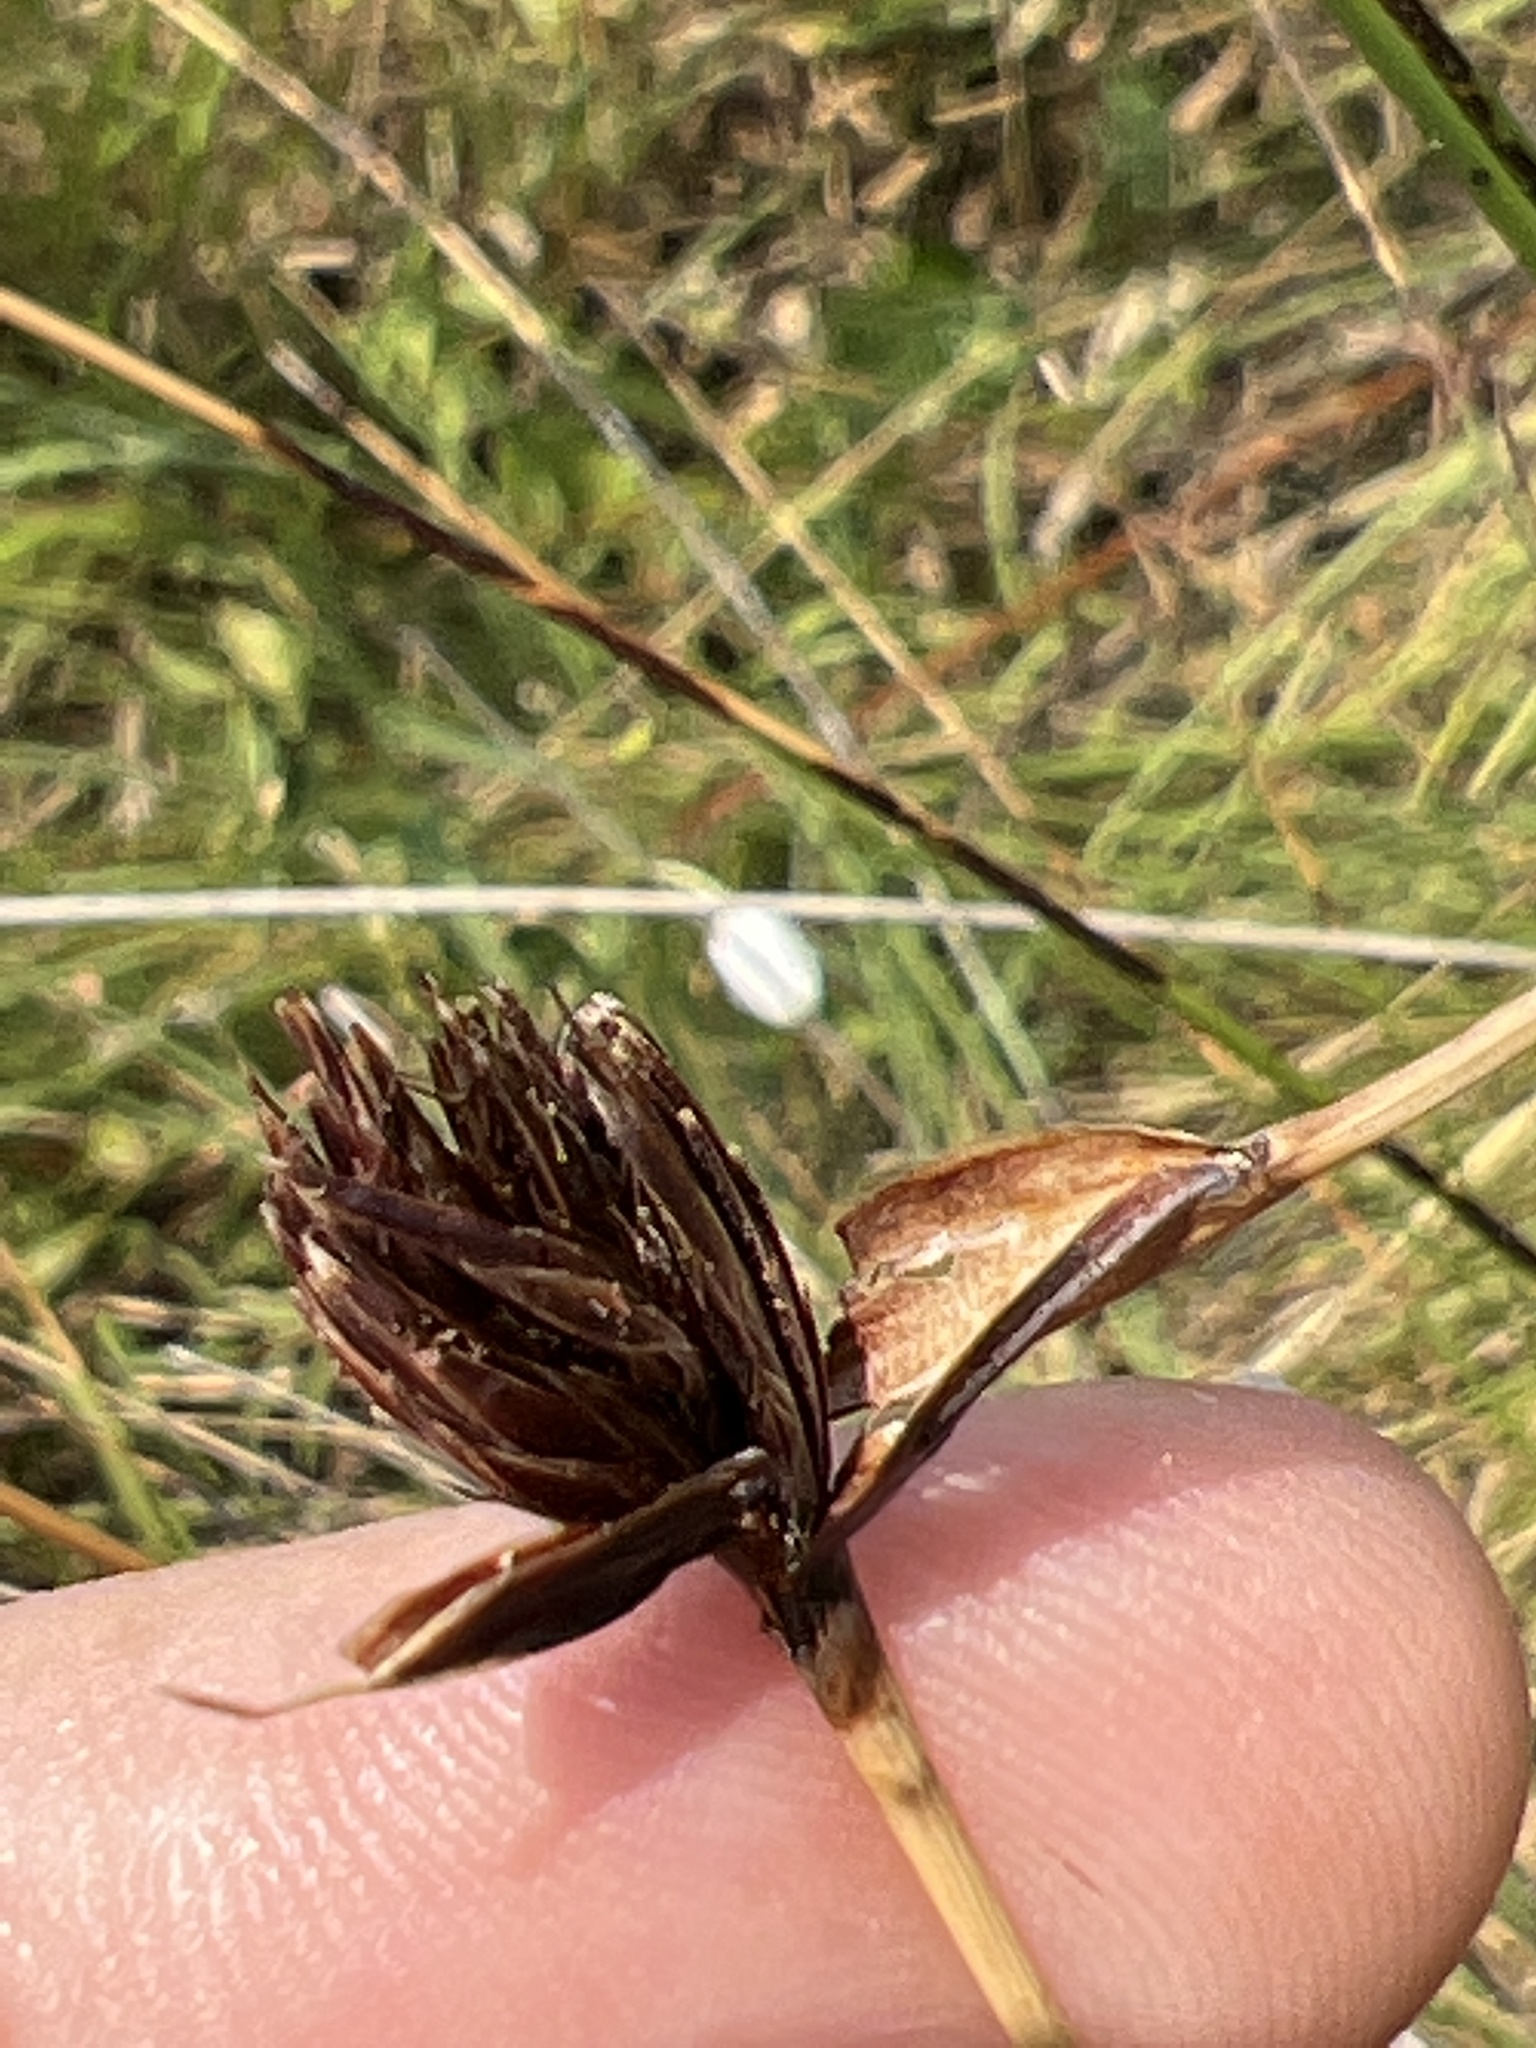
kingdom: Plantae
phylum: Tracheophyta
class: Liliopsida
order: Poales
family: Cyperaceae
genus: Schoenus
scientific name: Schoenus nigricans
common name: Black bog-rush
